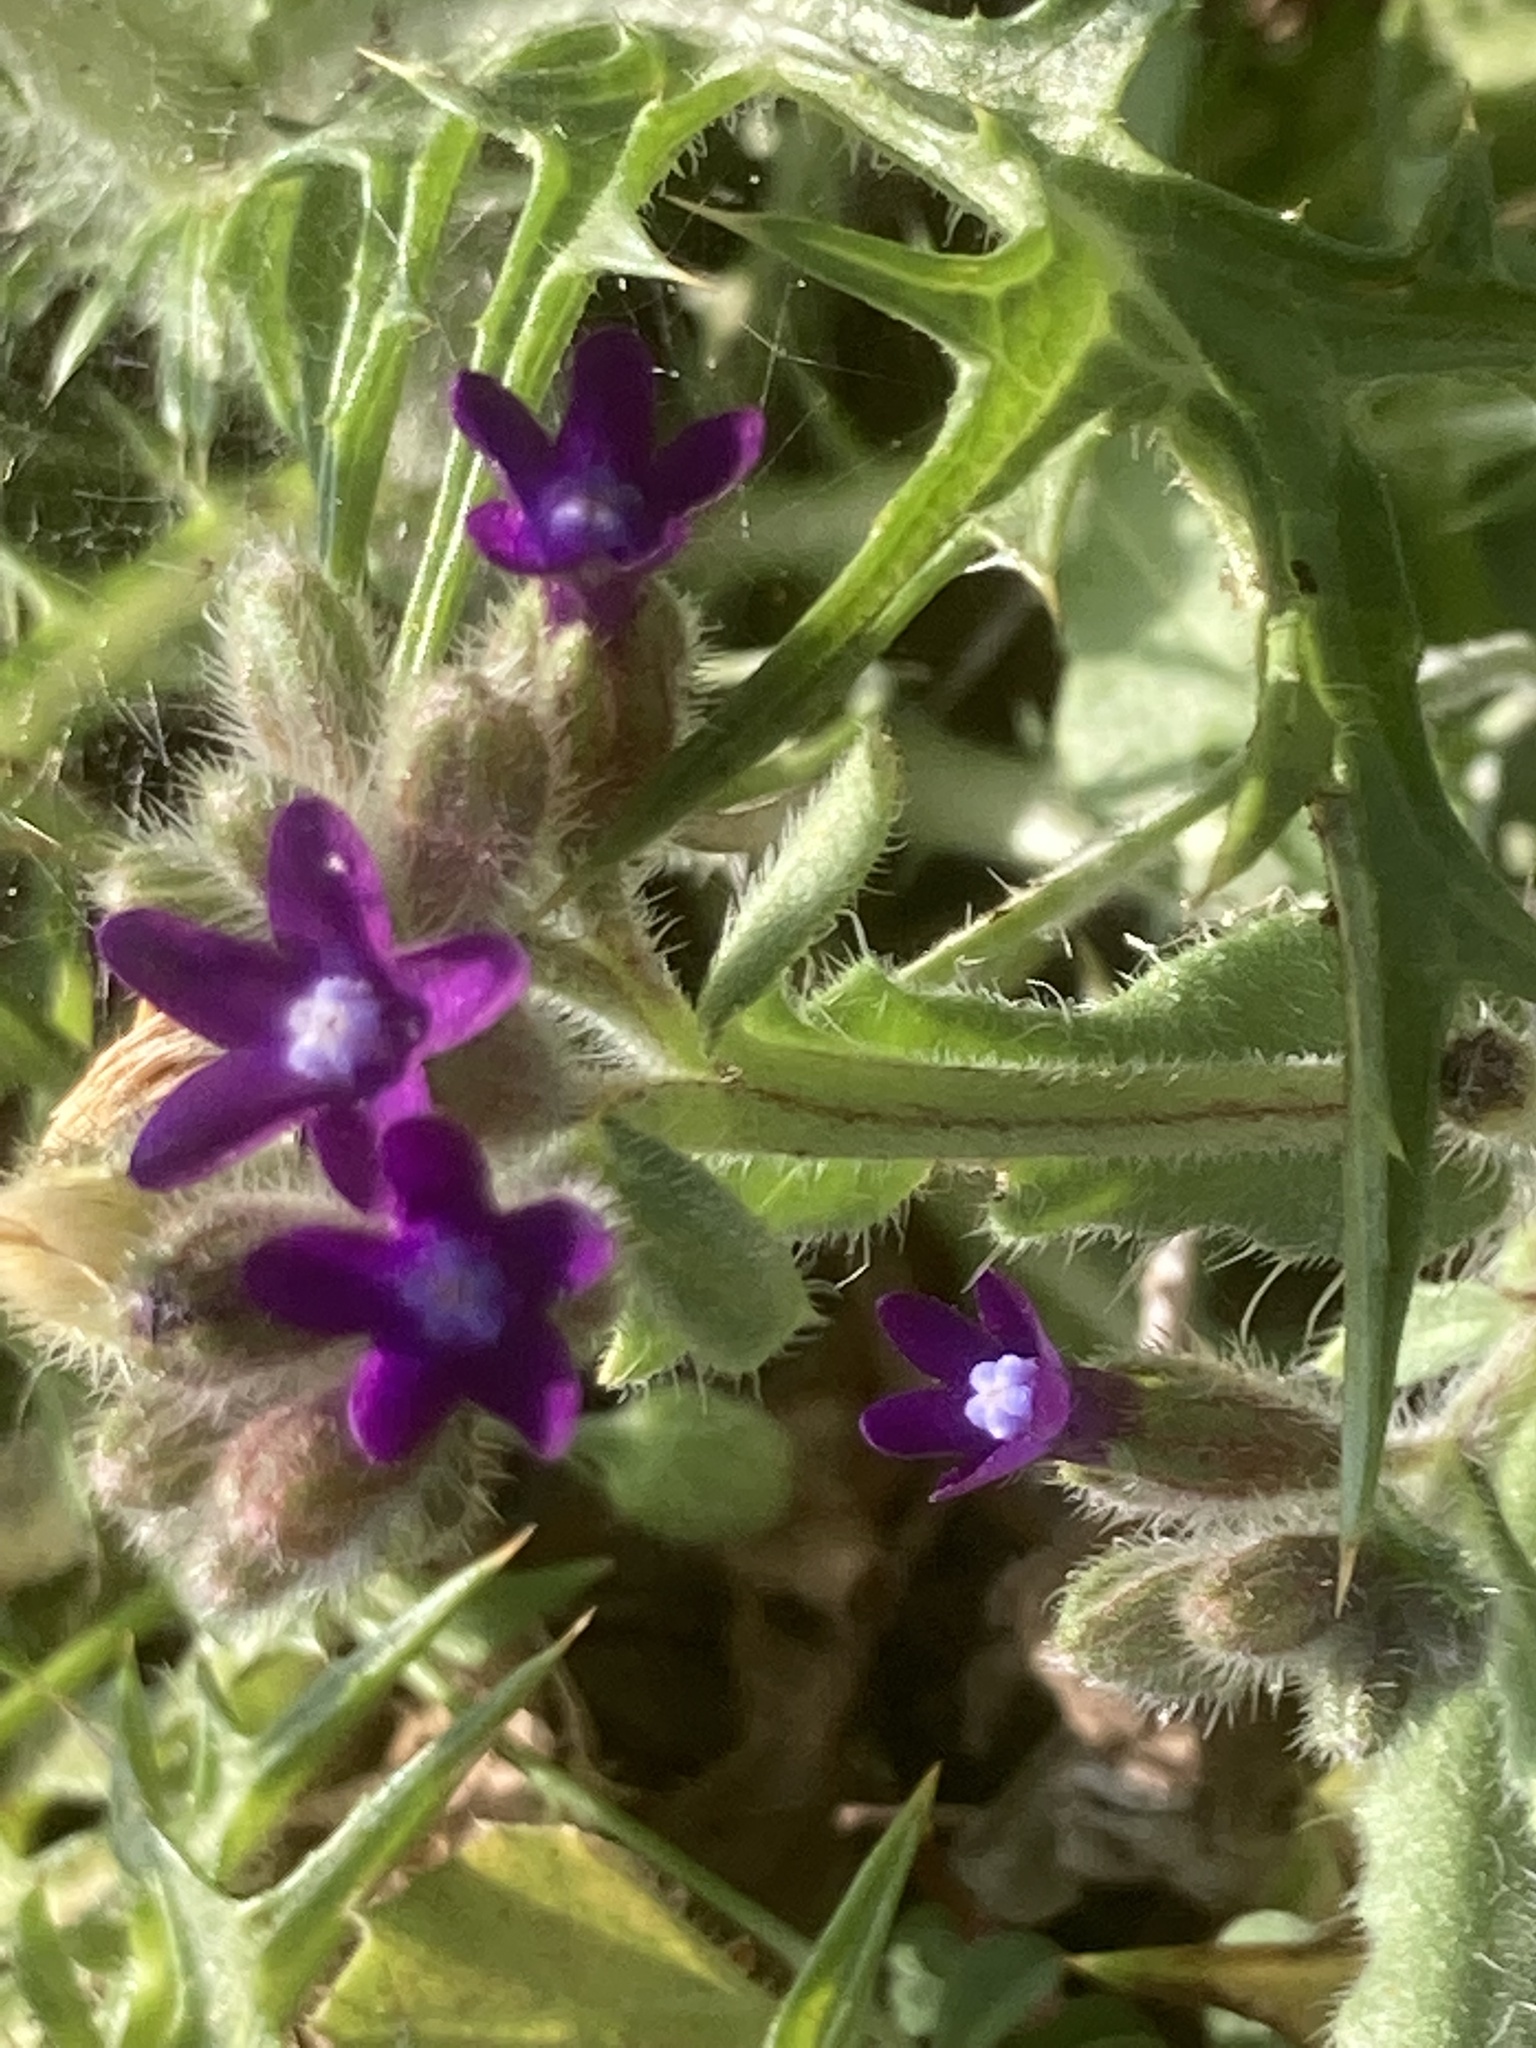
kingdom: Plantae
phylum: Tracheophyta
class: Magnoliopsida
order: Boraginales
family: Boraginaceae
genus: Anchusa
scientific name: Anchusa hybrida
